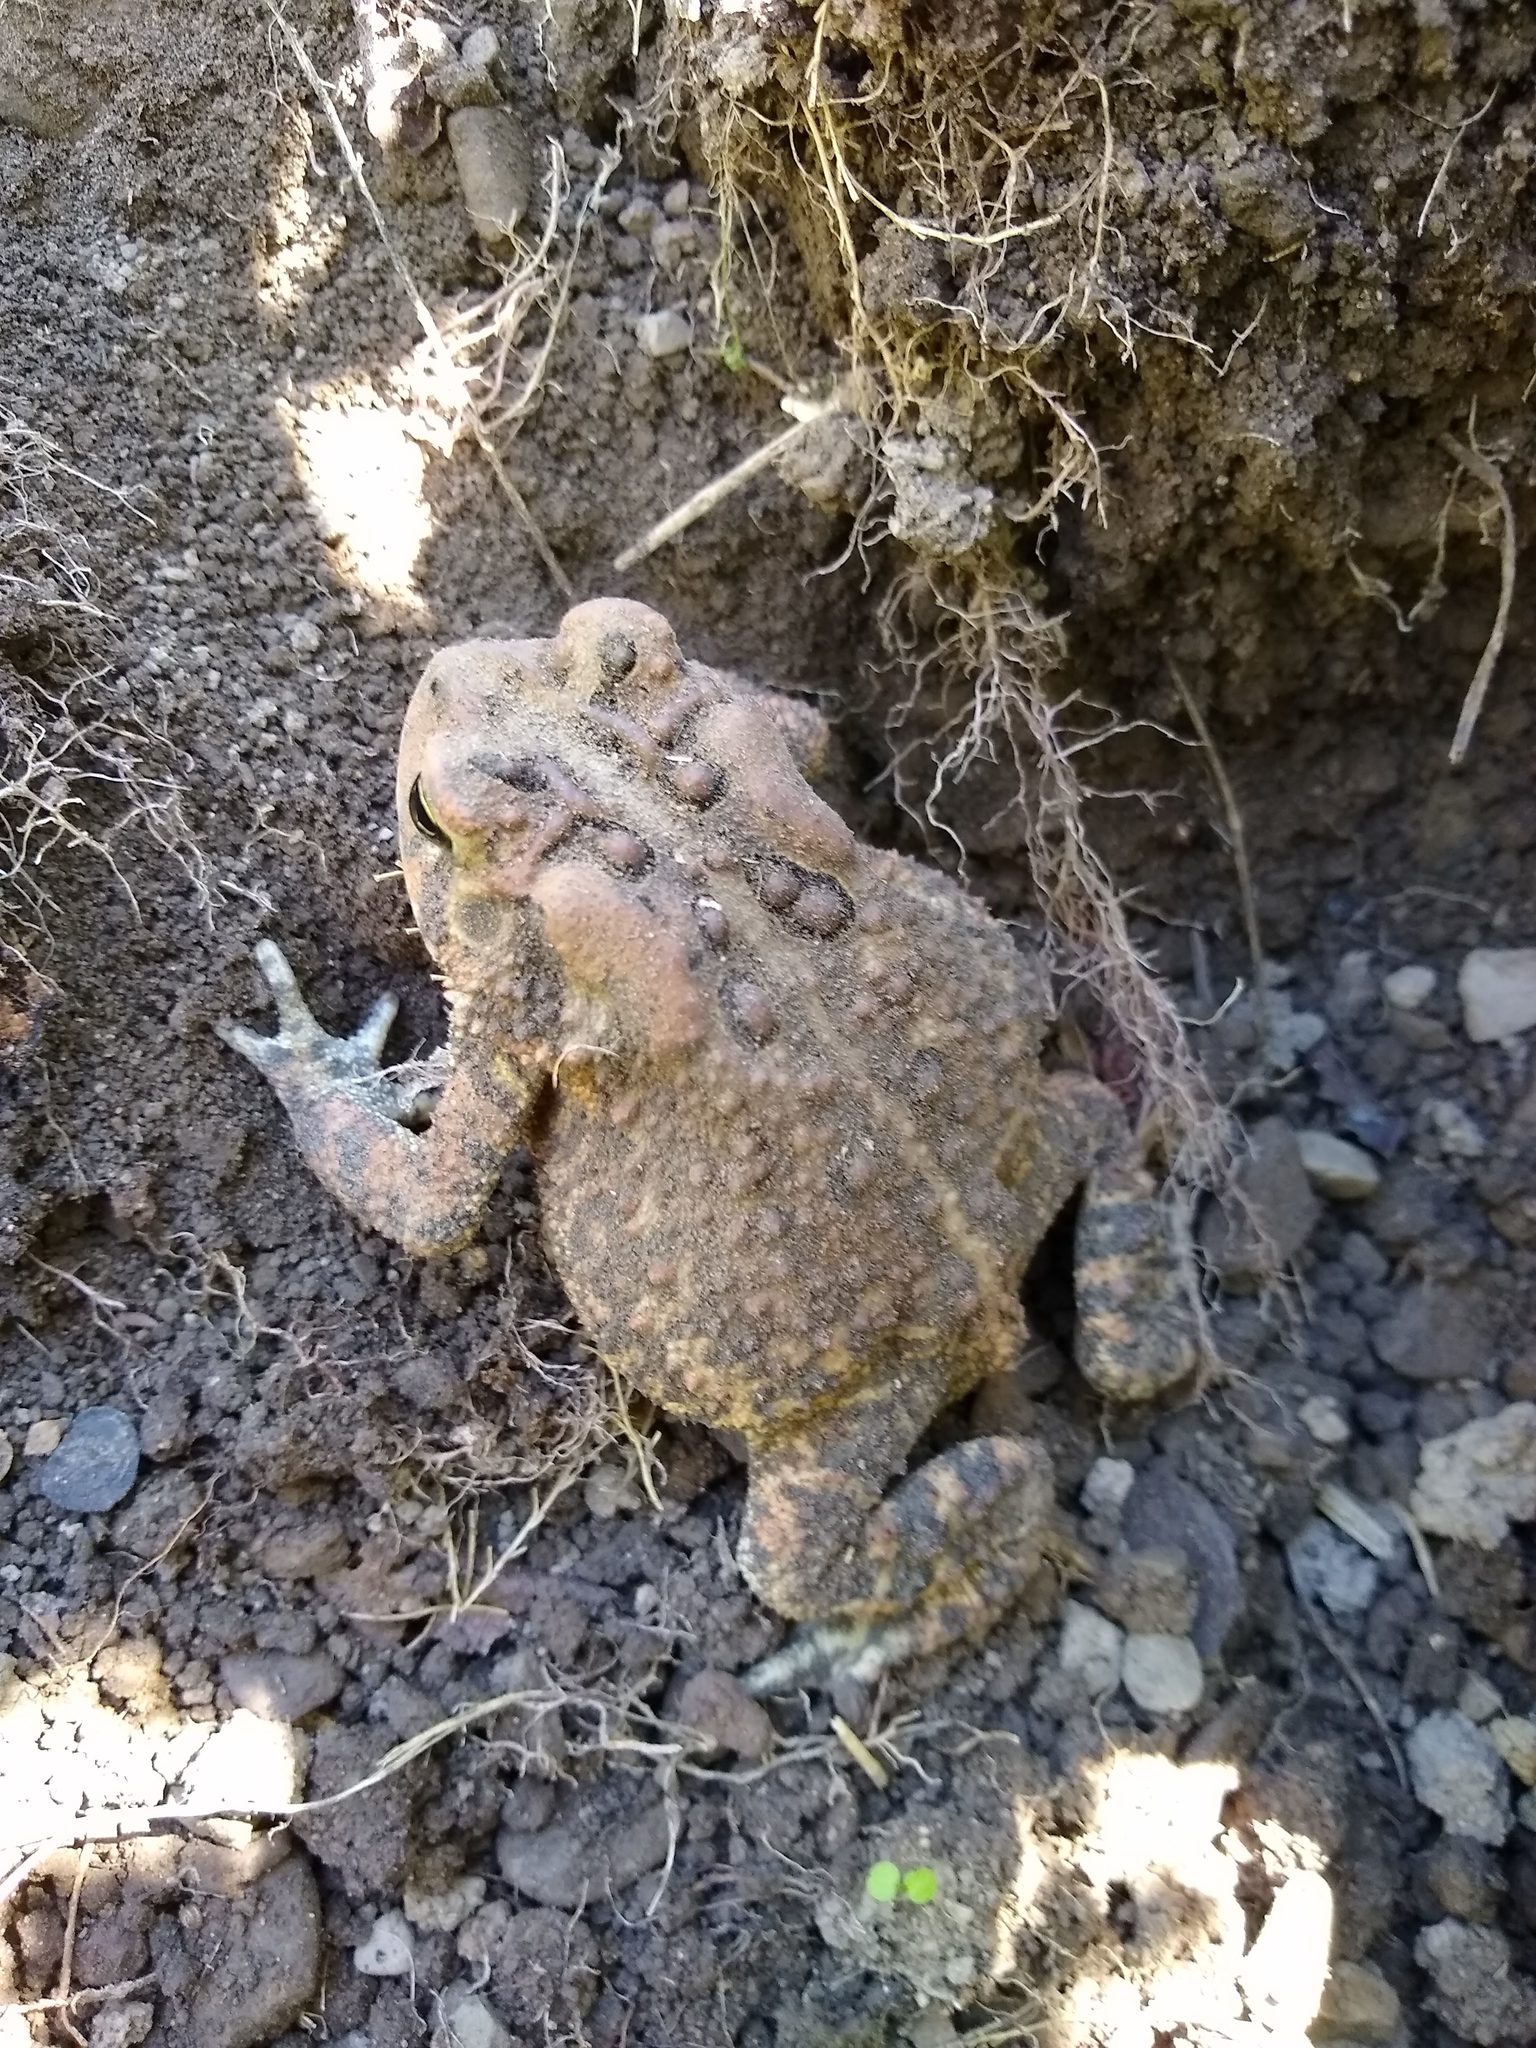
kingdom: Animalia
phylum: Chordata
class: Amphibia
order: Anura
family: Bufonidae
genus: Anaxyrus
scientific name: Anaxyrus americanus
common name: American toad
